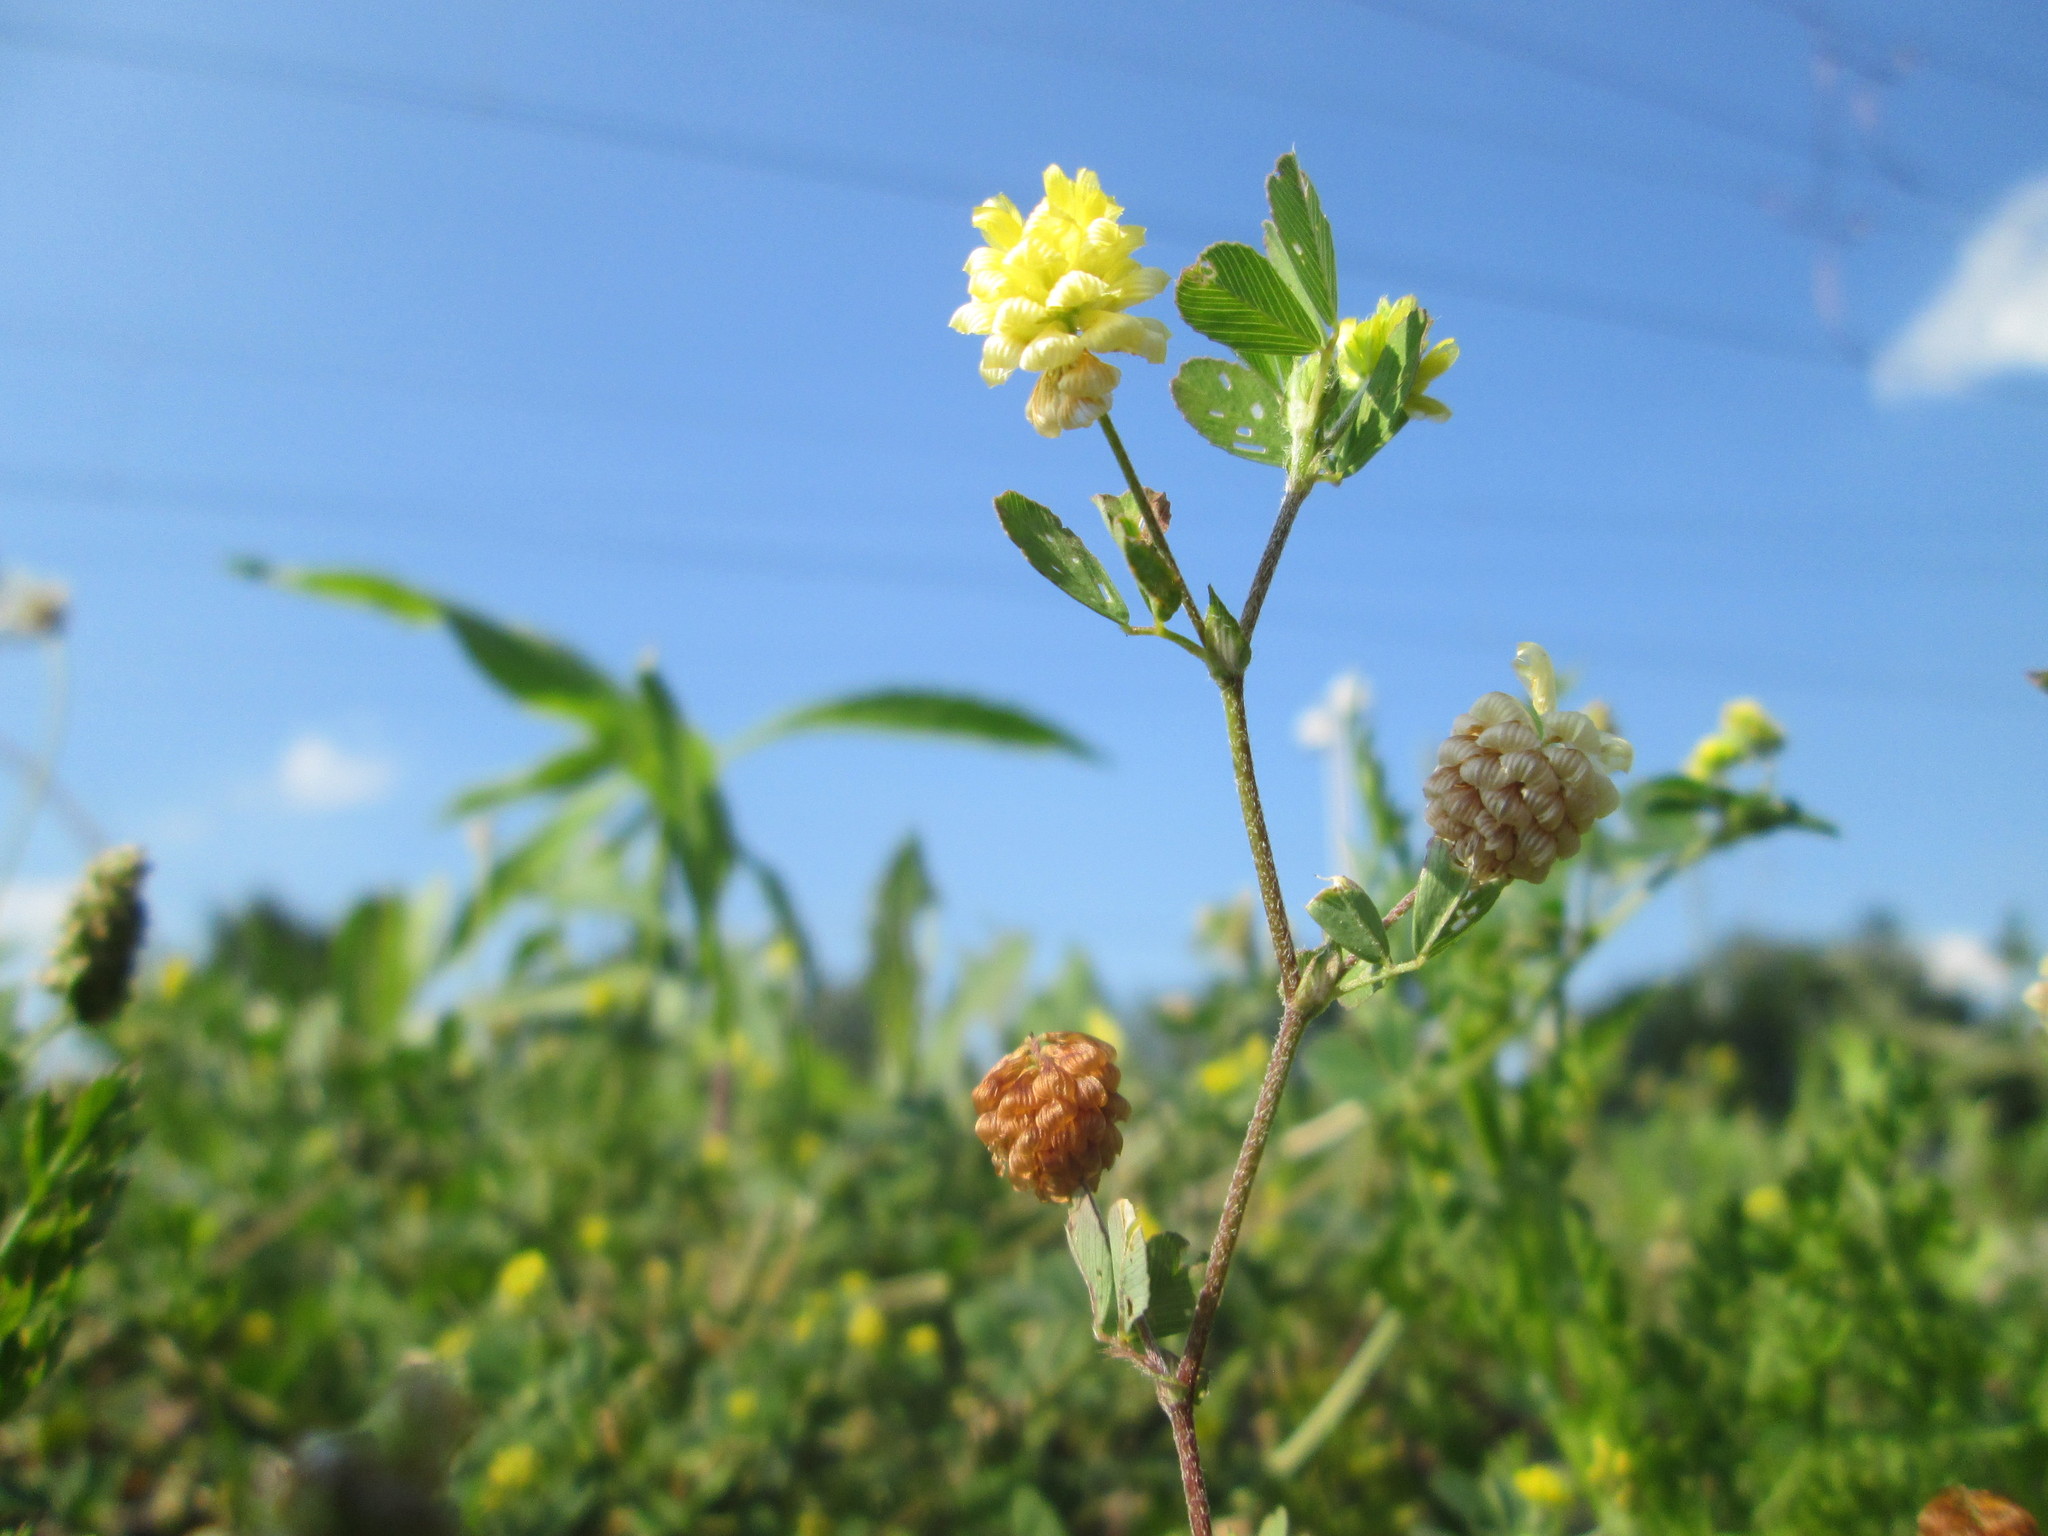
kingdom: Plantae
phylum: Tracheophyta
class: Magnoliopsida
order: Fabales
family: Fabaceae
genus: Trifolium
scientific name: Trifolium campestre
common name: Field clover
